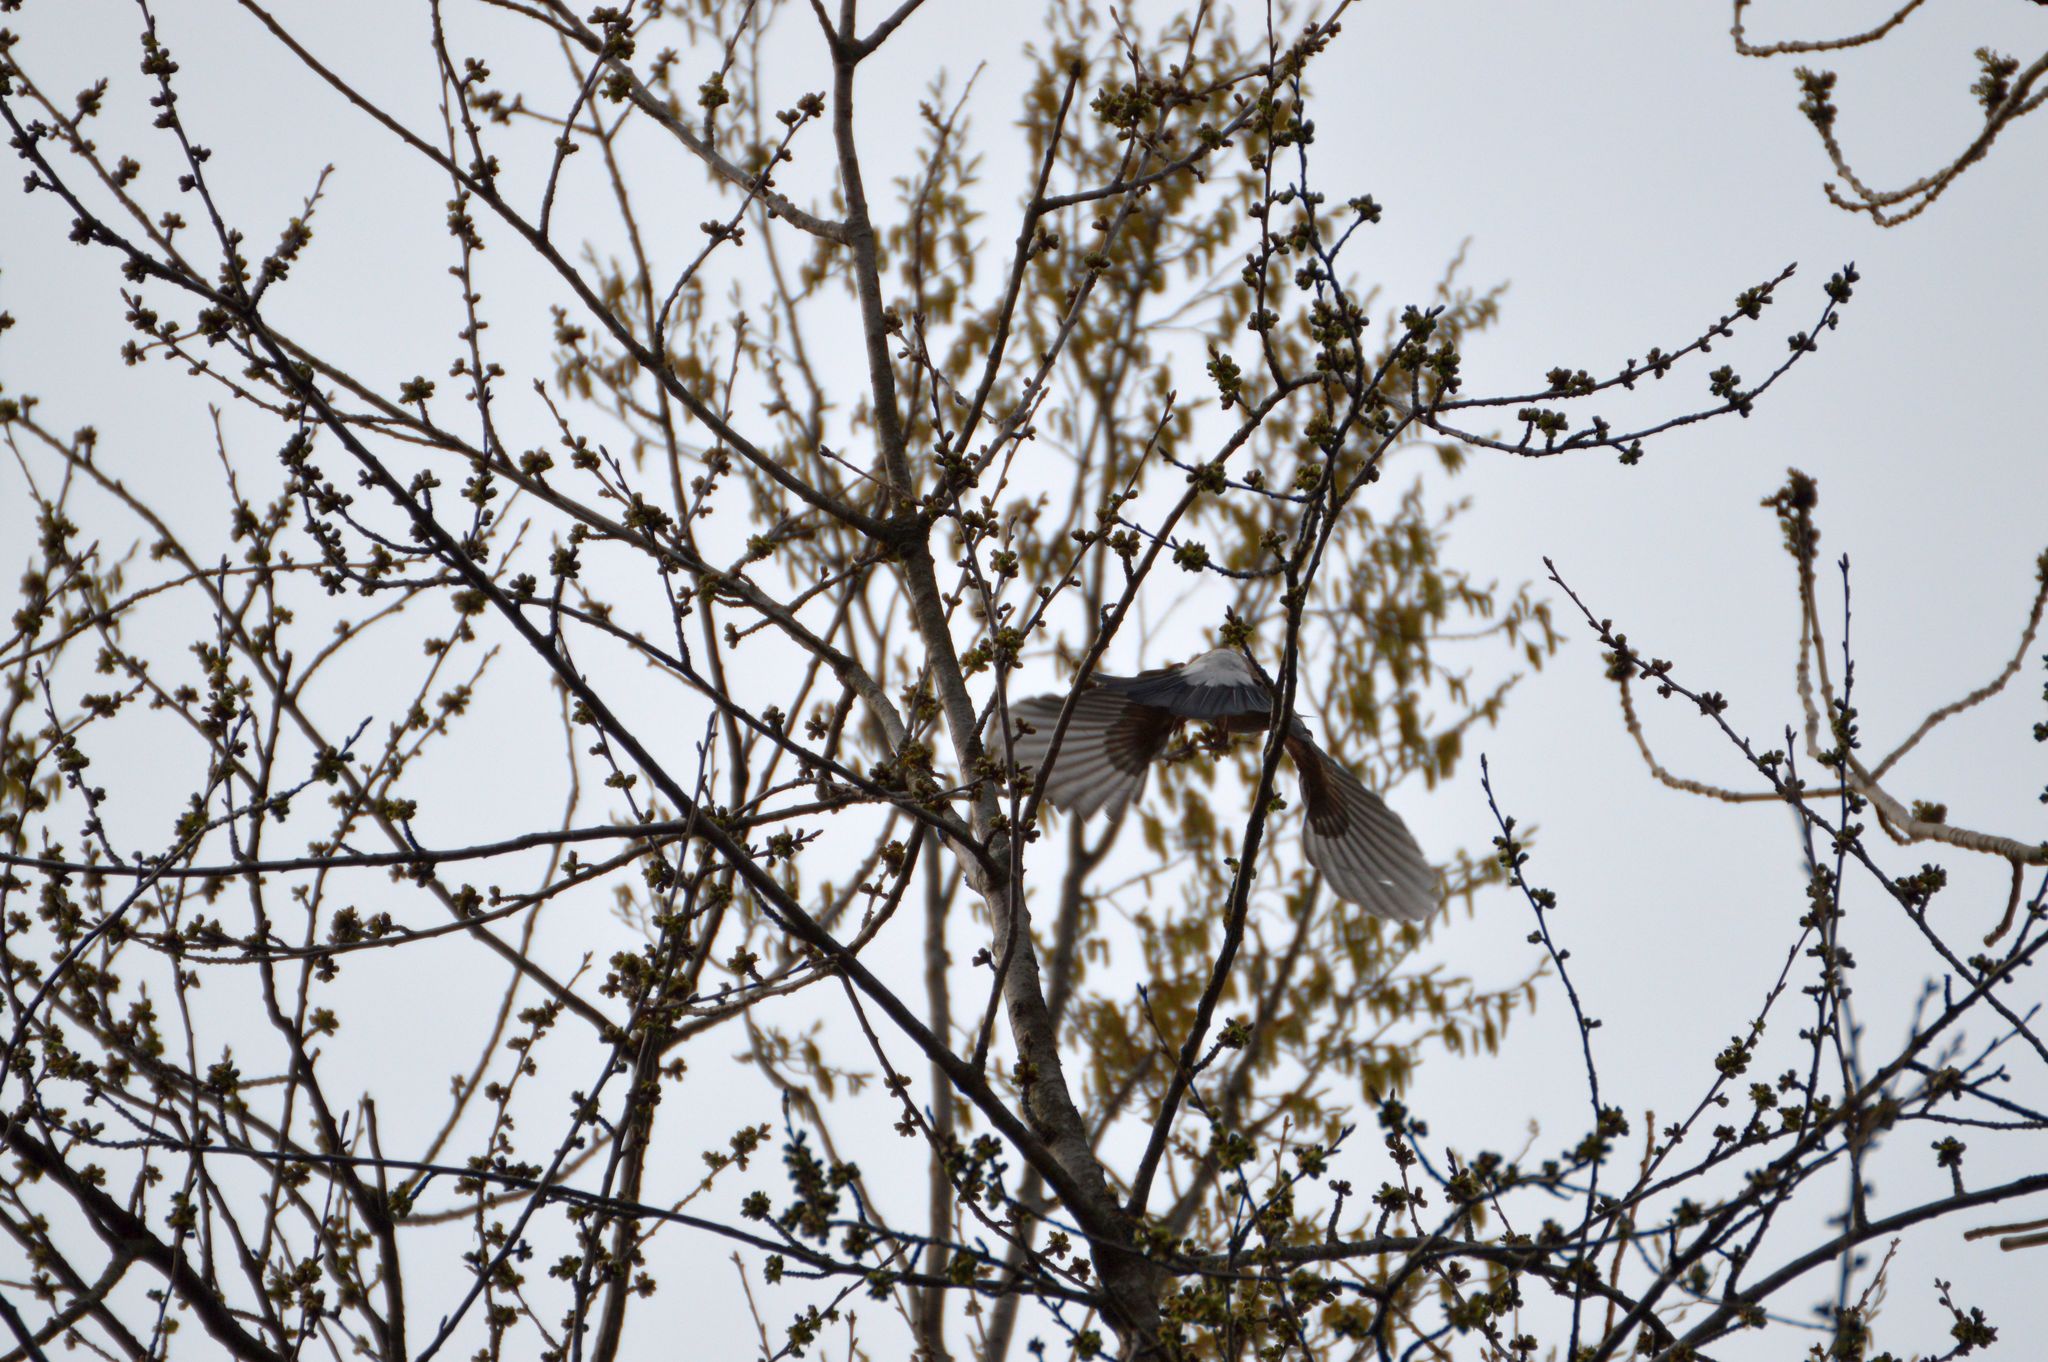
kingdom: Animalia
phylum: Chordata
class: Aves
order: Passeriformes
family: Corvidae
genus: Corvus
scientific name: Corvus cornix
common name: Hooded crow
